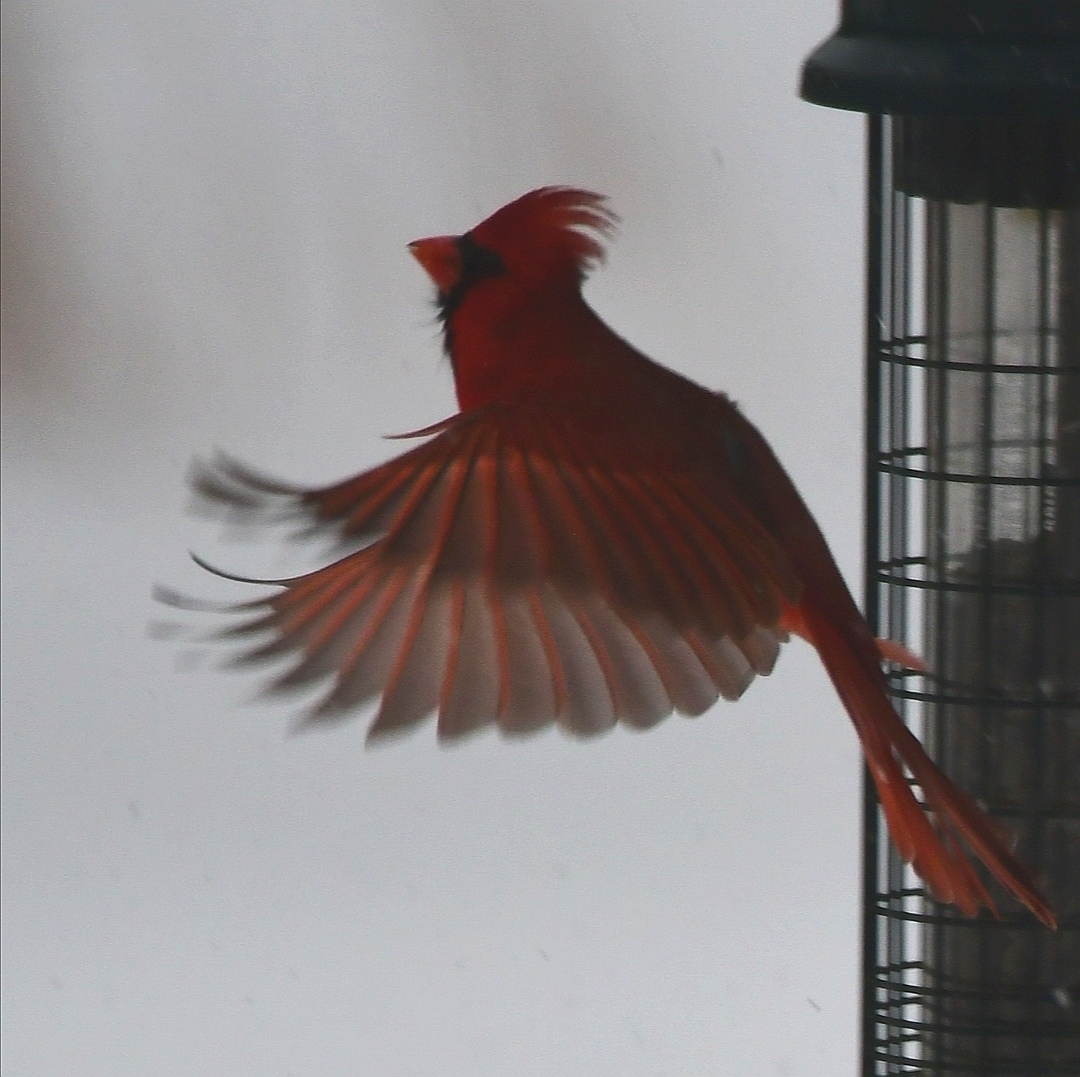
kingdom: Animalia
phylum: Chordata
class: Aves
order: Passeriformes
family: Cardinalidae
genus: Cardinalis
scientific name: Cardinalis cardinalis
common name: Northern cardinal
